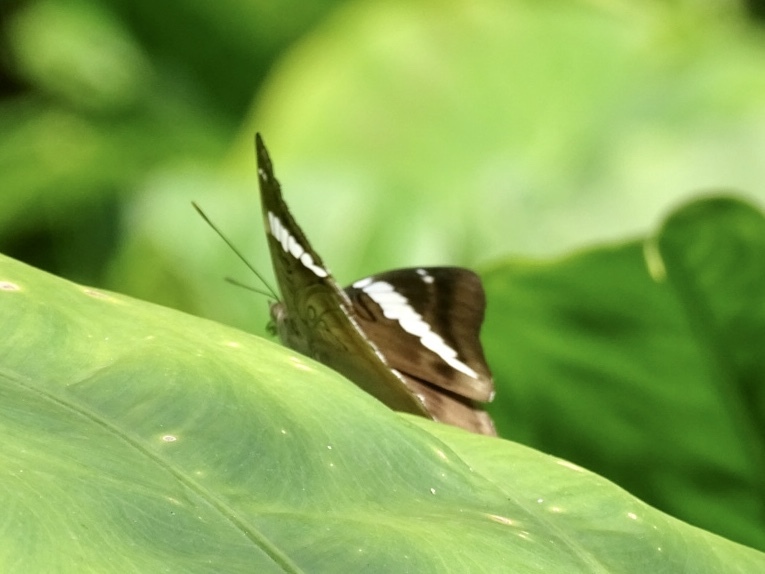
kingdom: Animalia
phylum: Arthropoda
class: Insecta
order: Lepidoptera
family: Nymphalidae
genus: Euthalia
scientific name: Euthalia phemius
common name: White-edged blue baron
